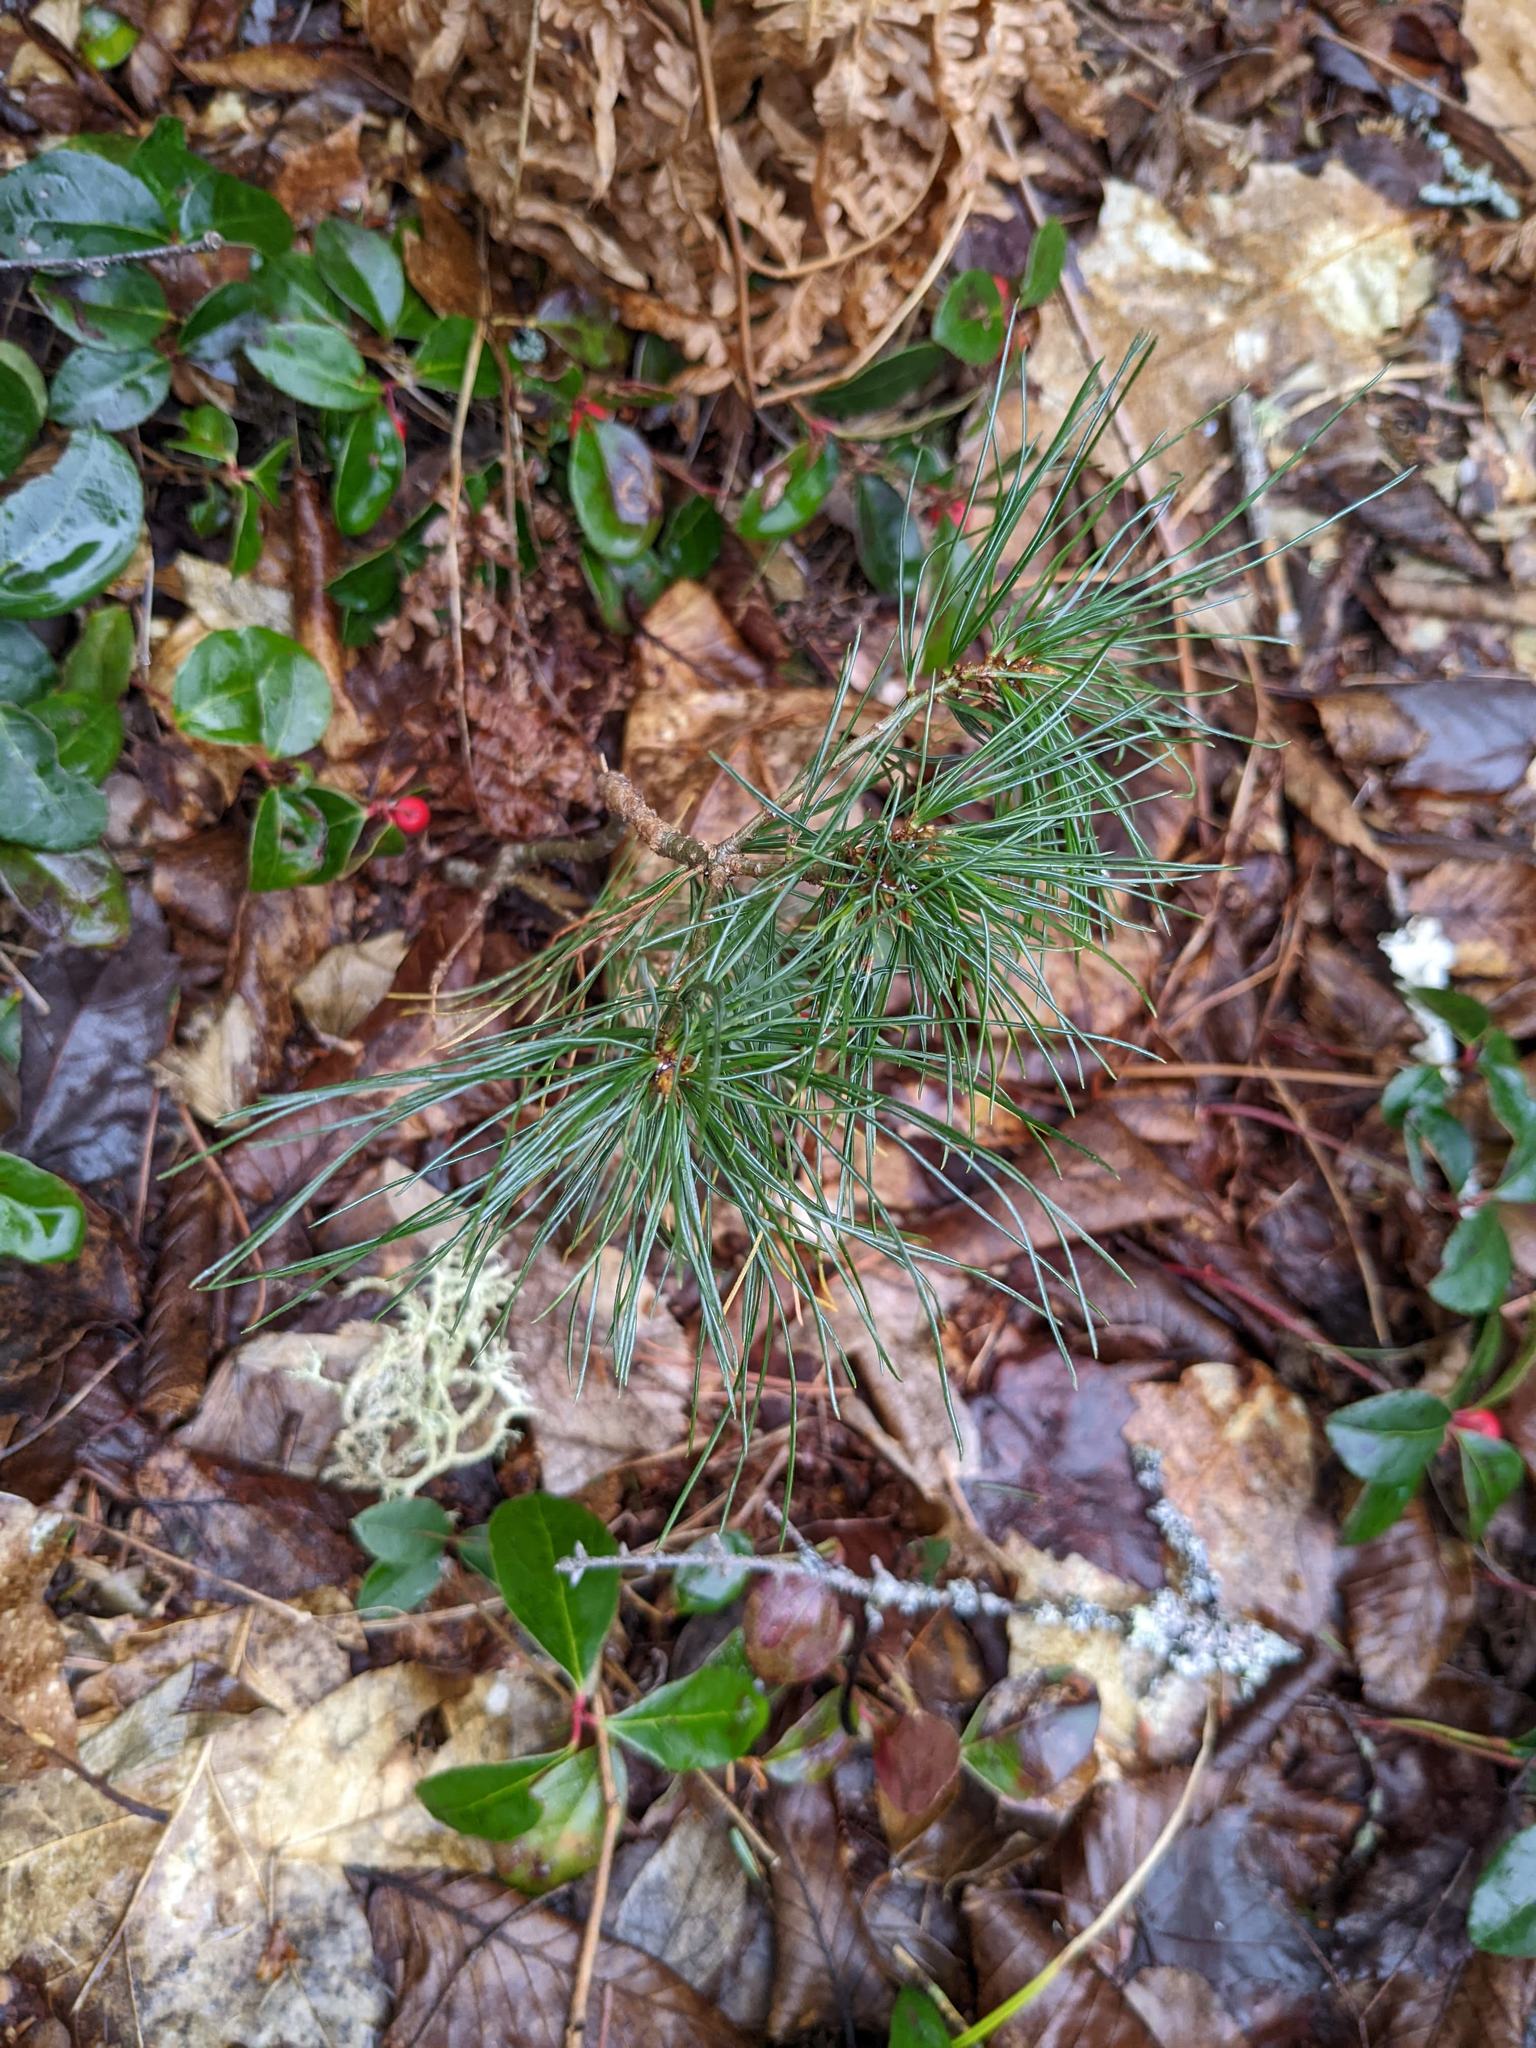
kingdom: Plantae
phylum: Tracheophyta
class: Pinopsida
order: Pinales
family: Pinaceae
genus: Pinus
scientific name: Pinus strobus
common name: Weymouth pine
